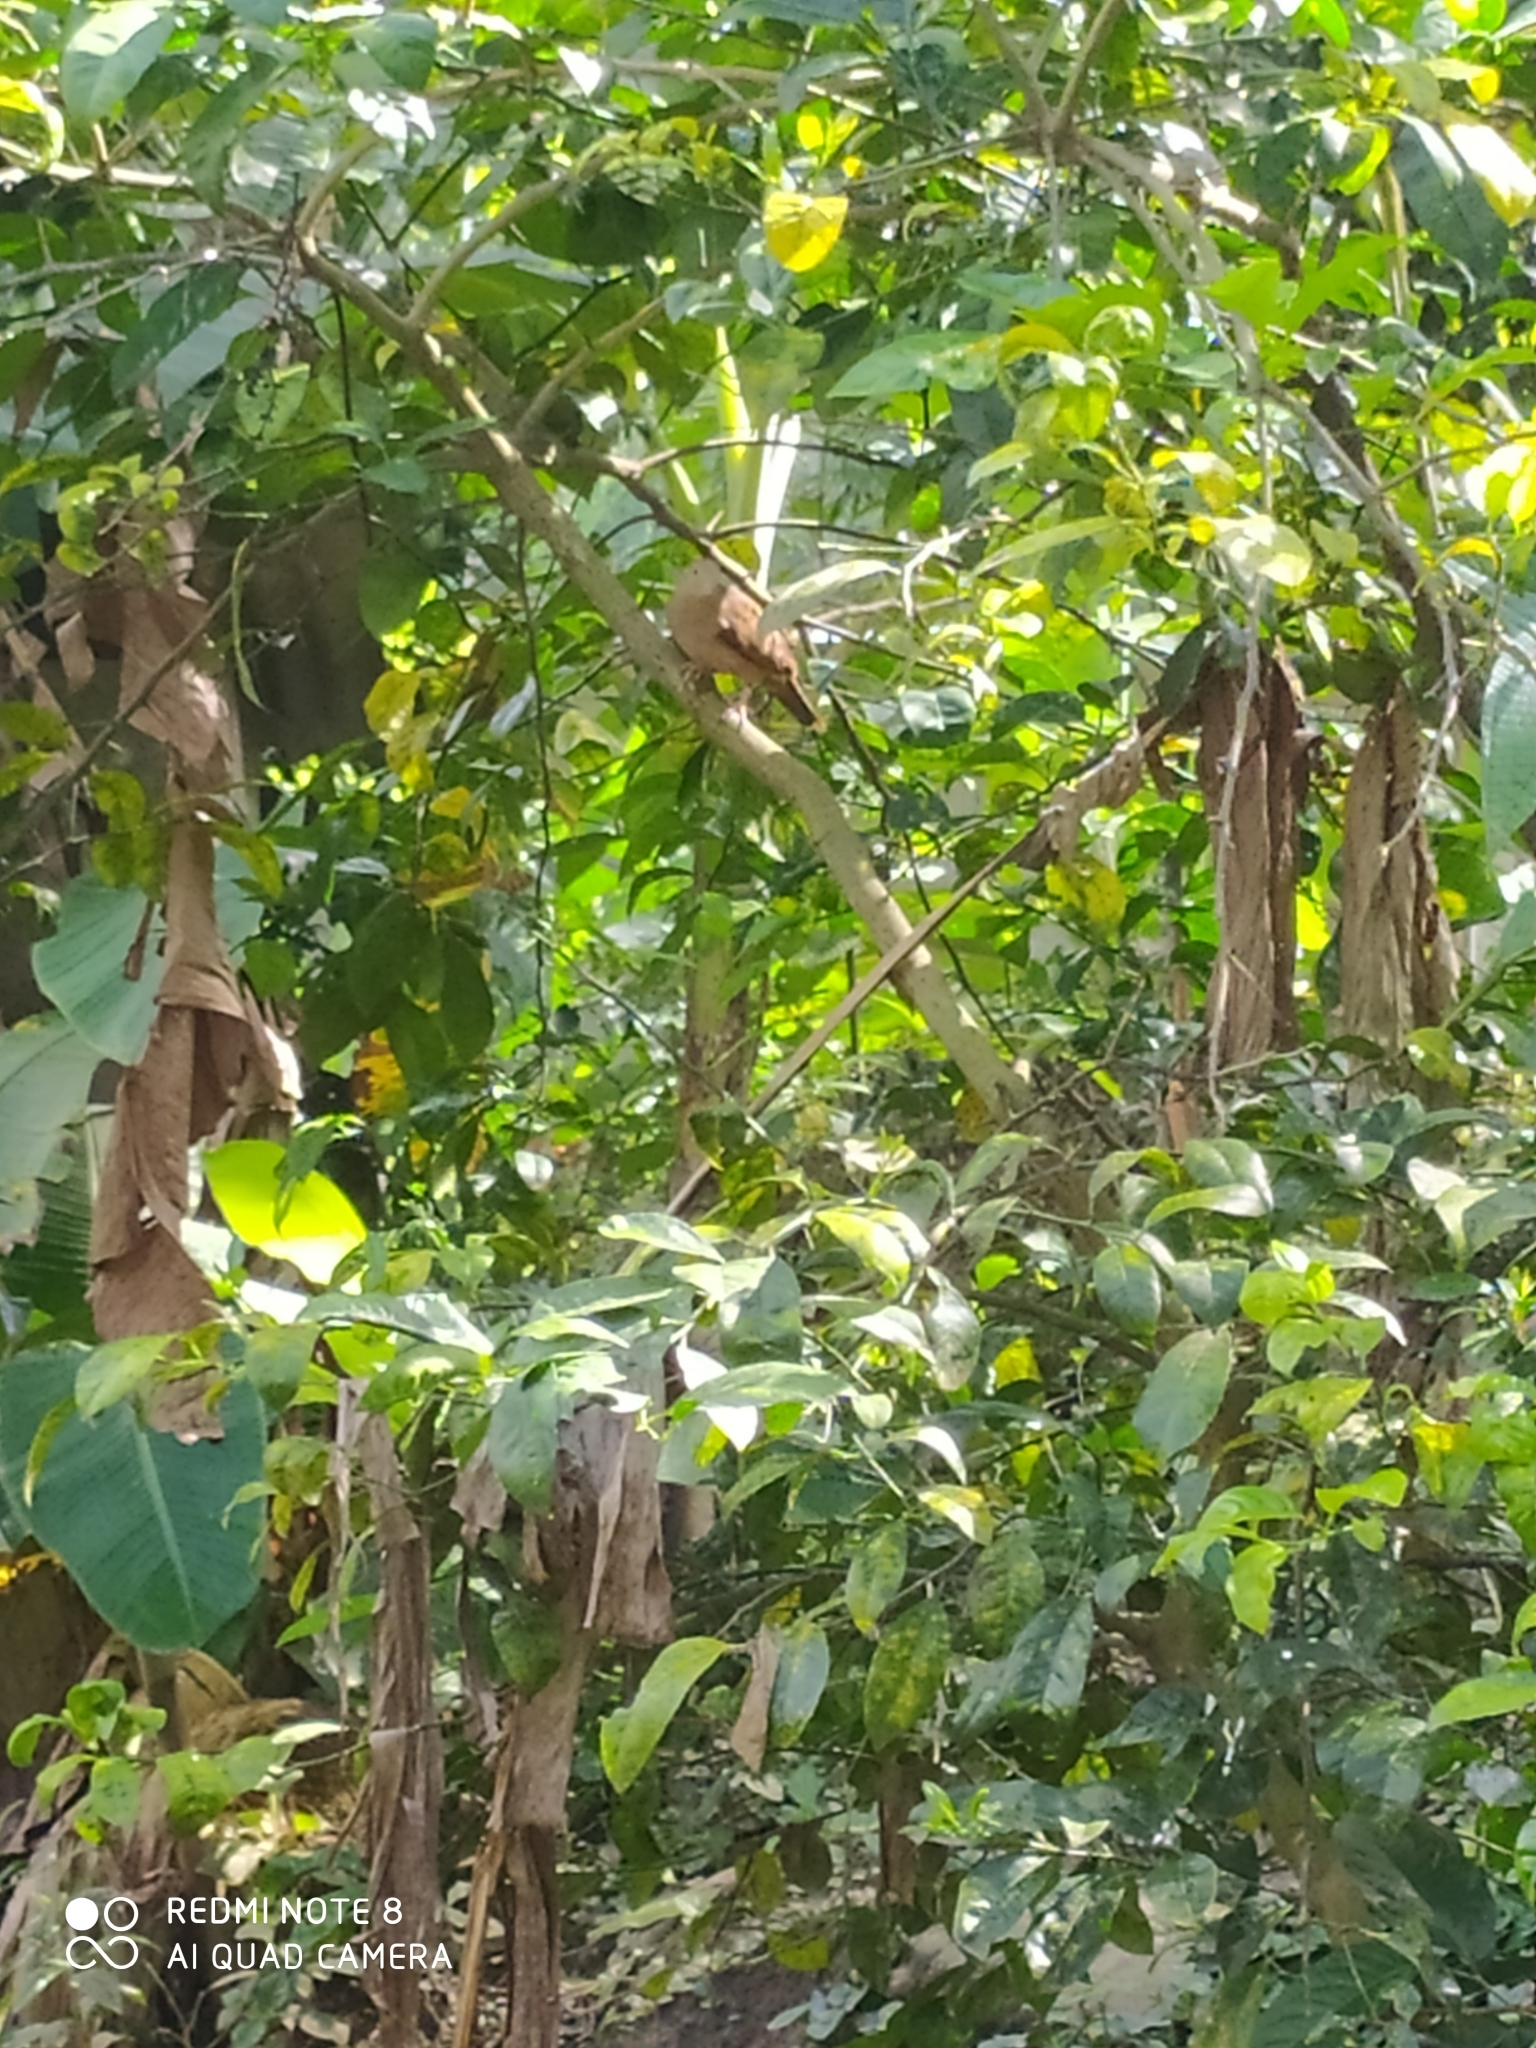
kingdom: Animalia
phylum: Chordata
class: Aves
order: Columbiformes
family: Columbidae
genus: Columbina
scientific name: Columbina talpacoti
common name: Ruddy ground dove
